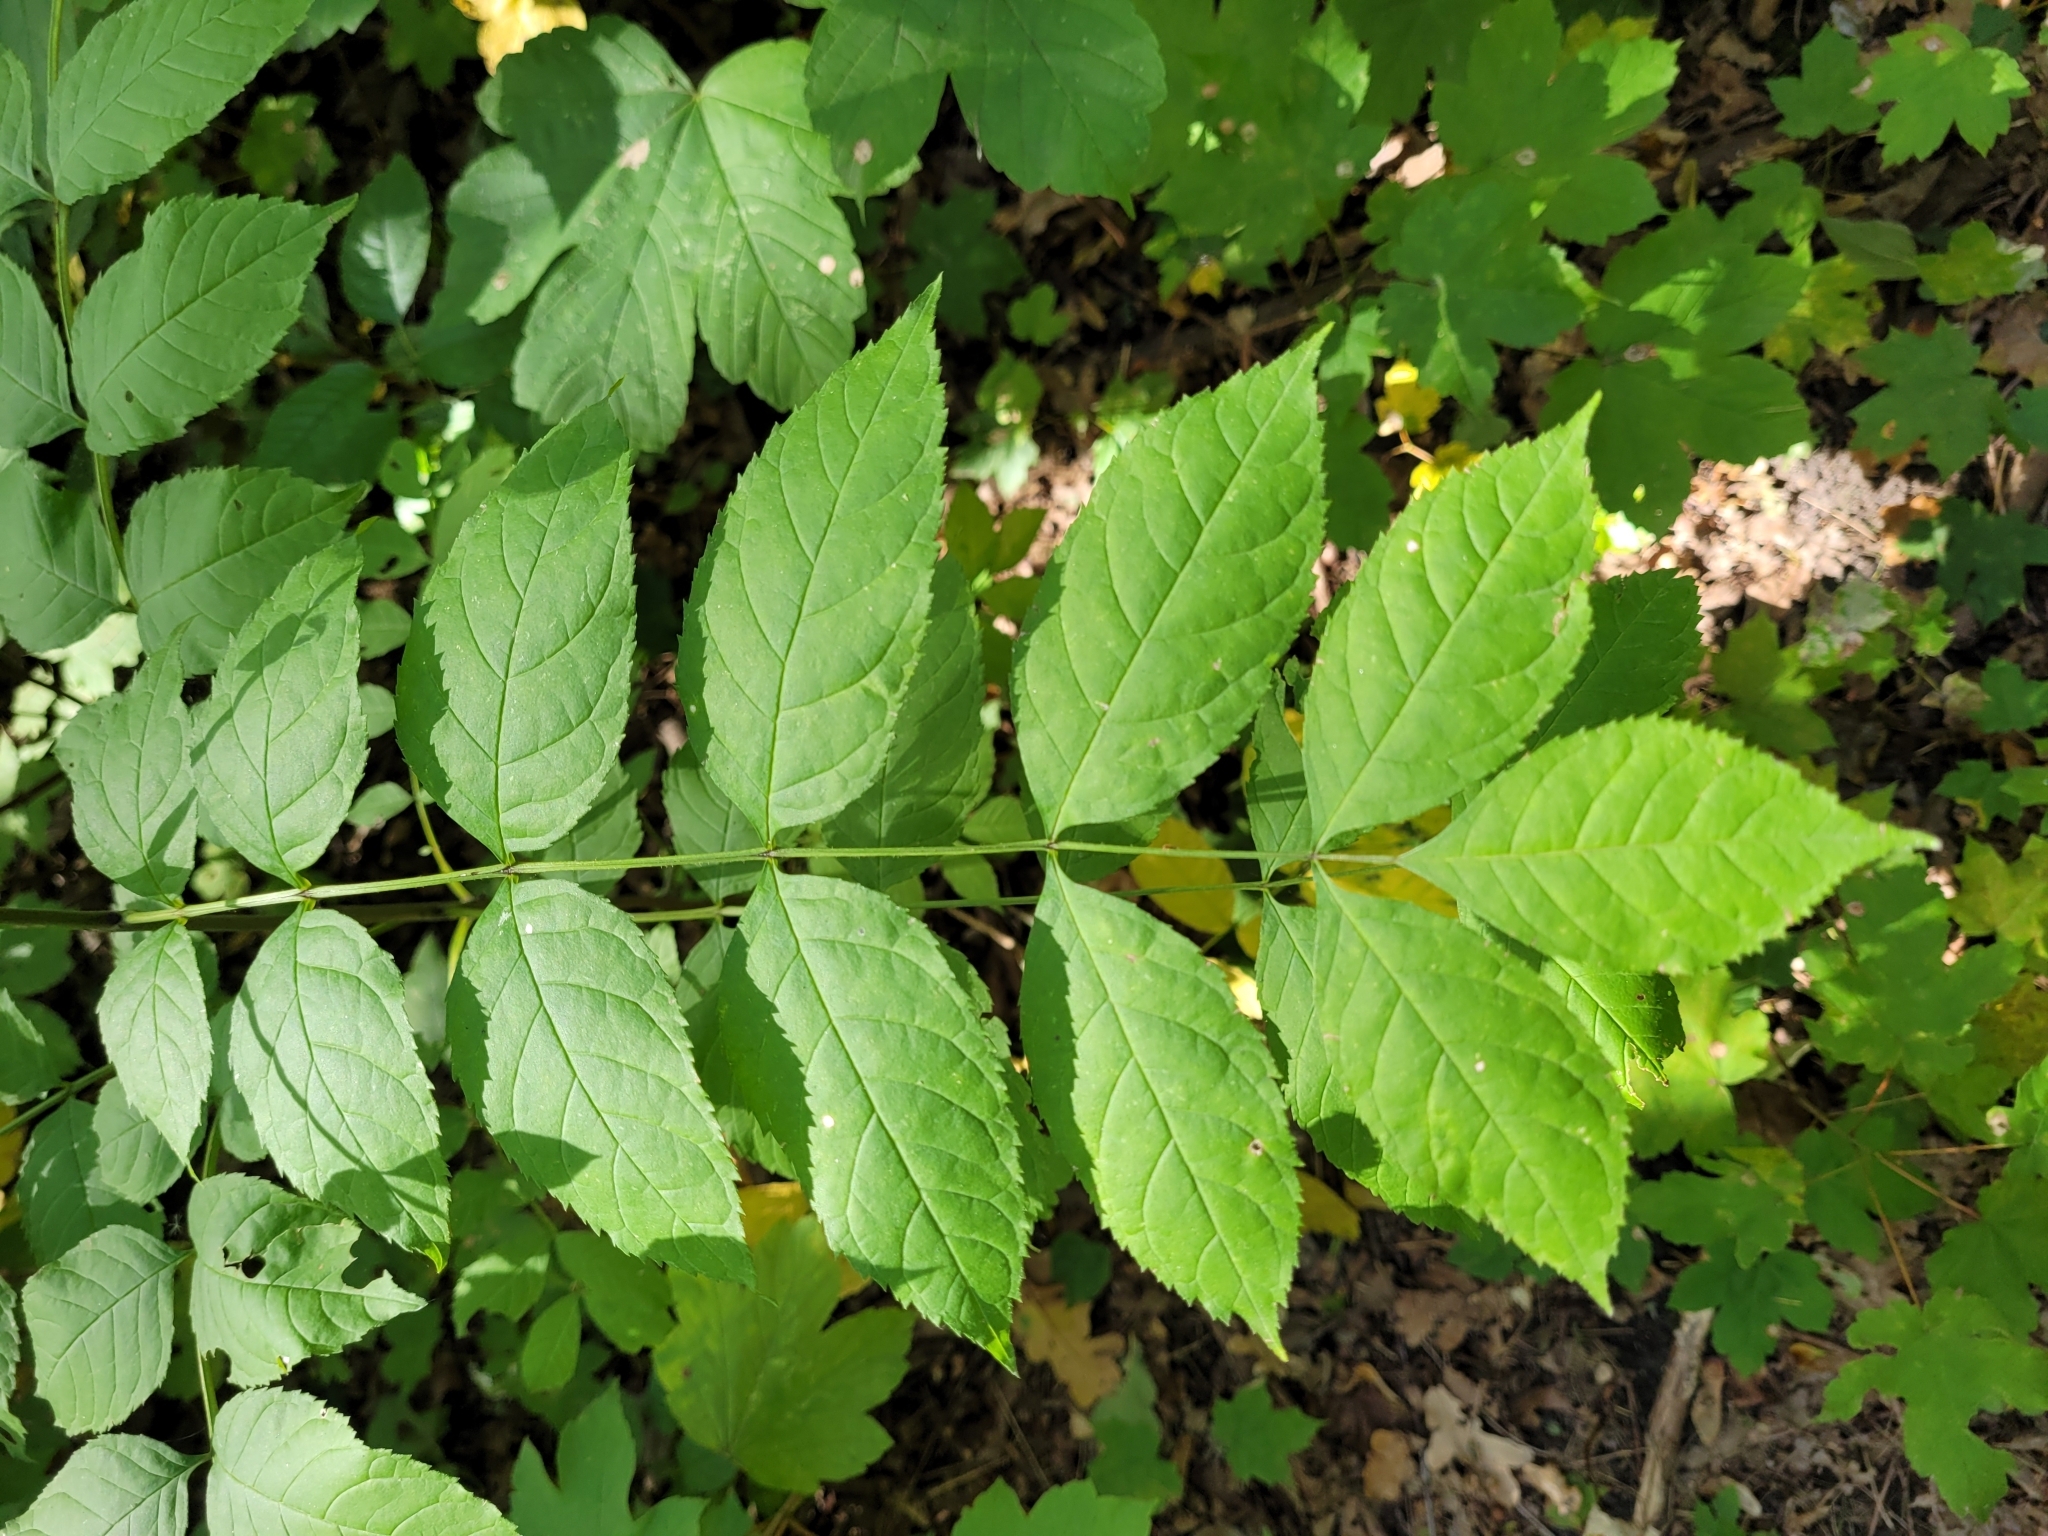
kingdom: Plantae
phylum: Tracheophyta
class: Magnoliopsida
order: Lamiales
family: Oleaceae
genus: Fraxinus
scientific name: Fraxinus excelsior
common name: European ash
